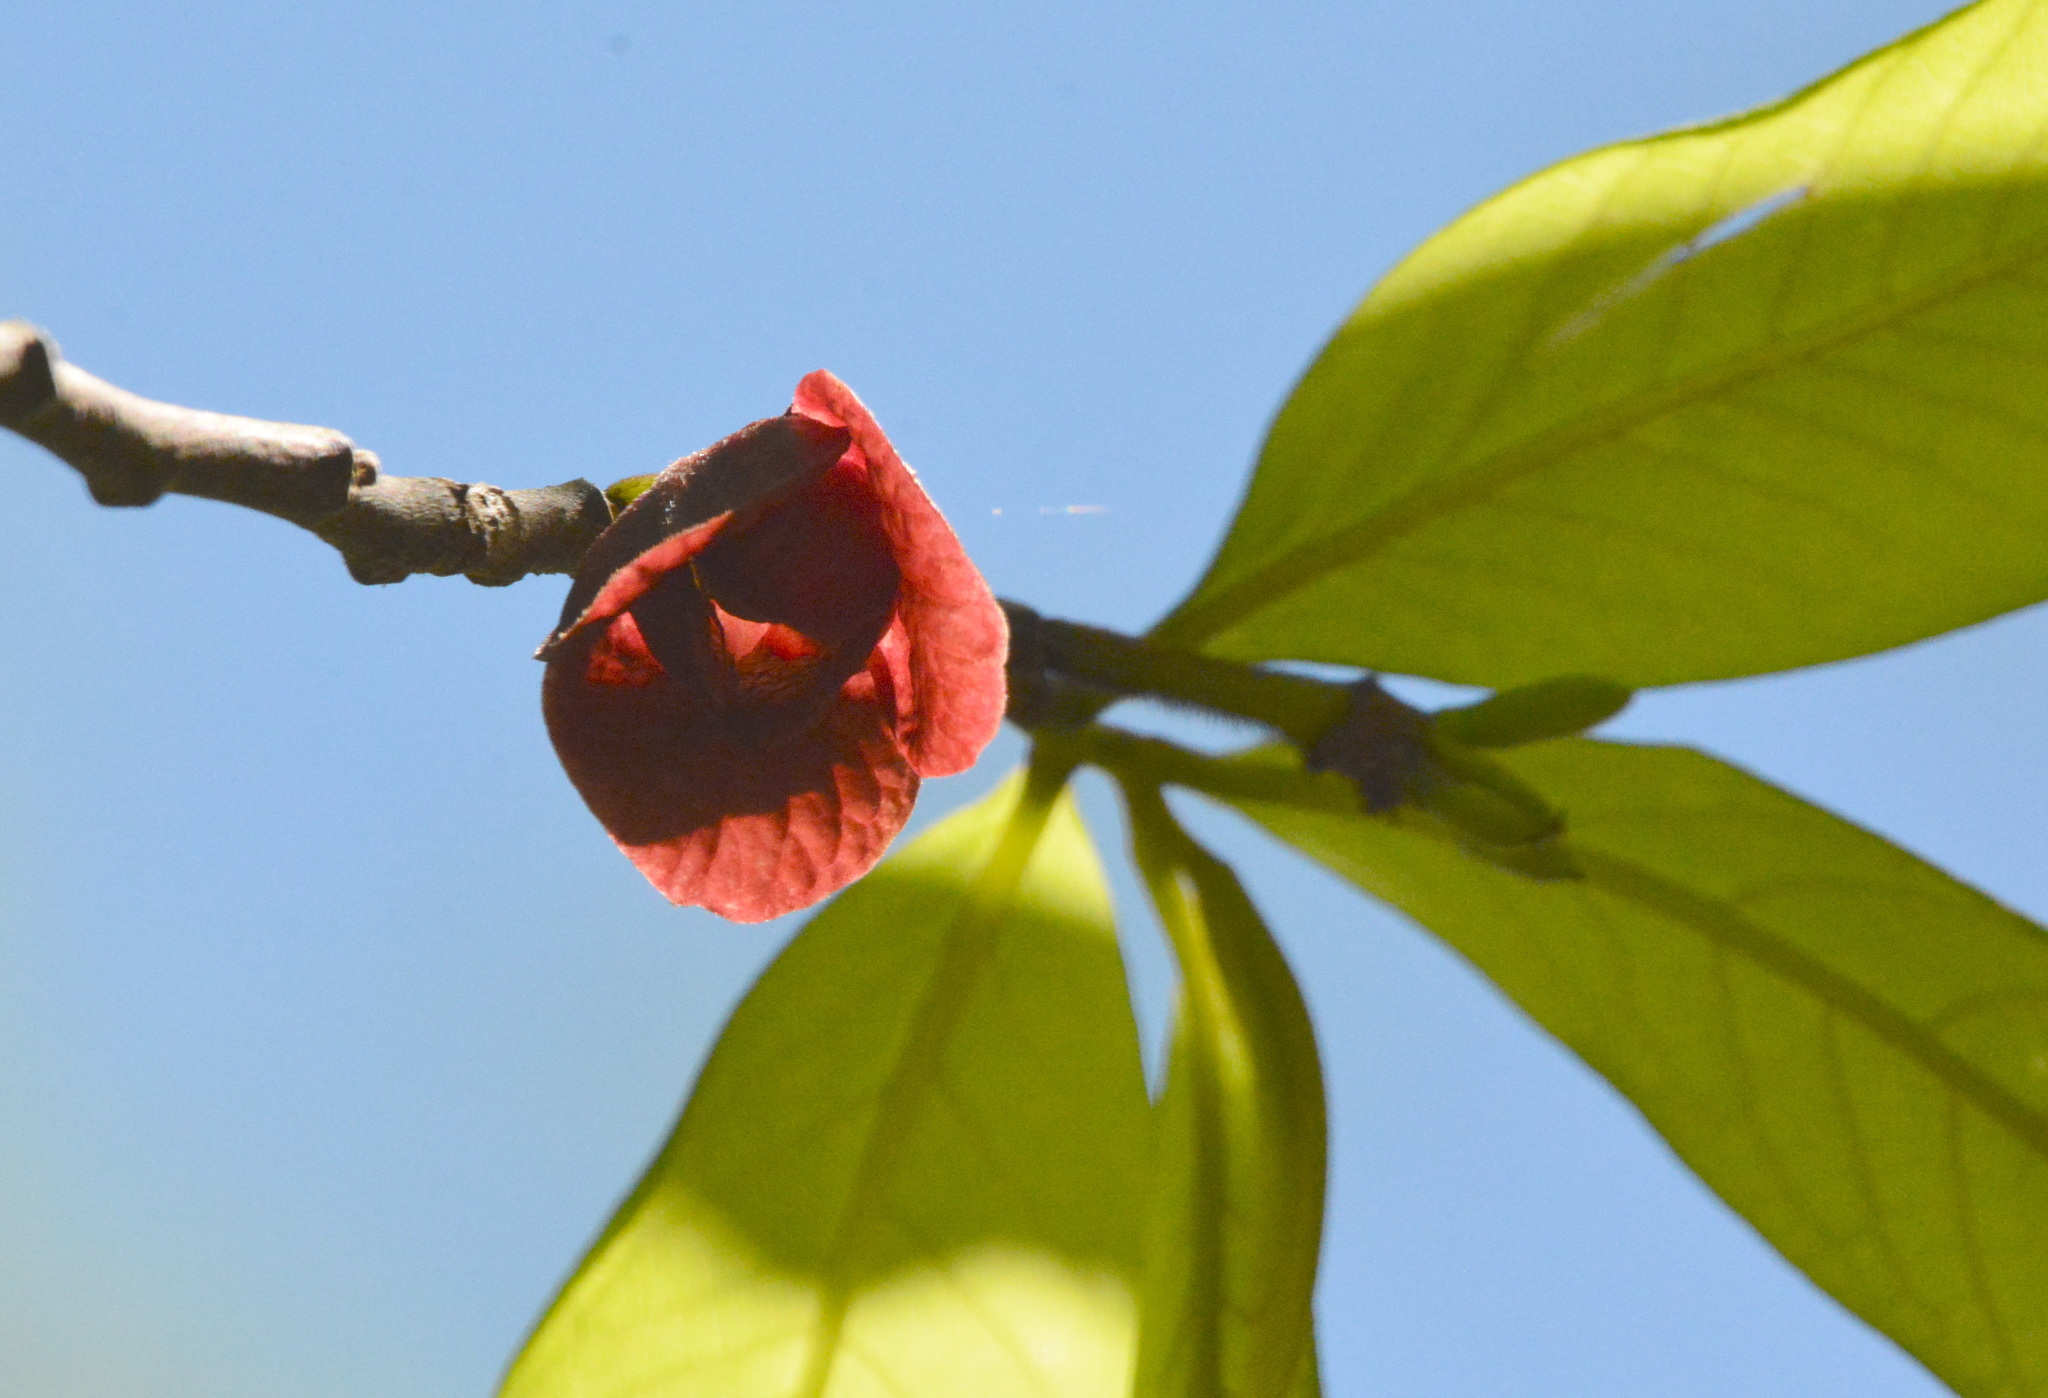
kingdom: Plantae
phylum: Tracheophyta
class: Magnoliopsida
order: Magnoliales
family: Annonaceae
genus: Asimina
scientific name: Asimina triloba
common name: Dog-banana
